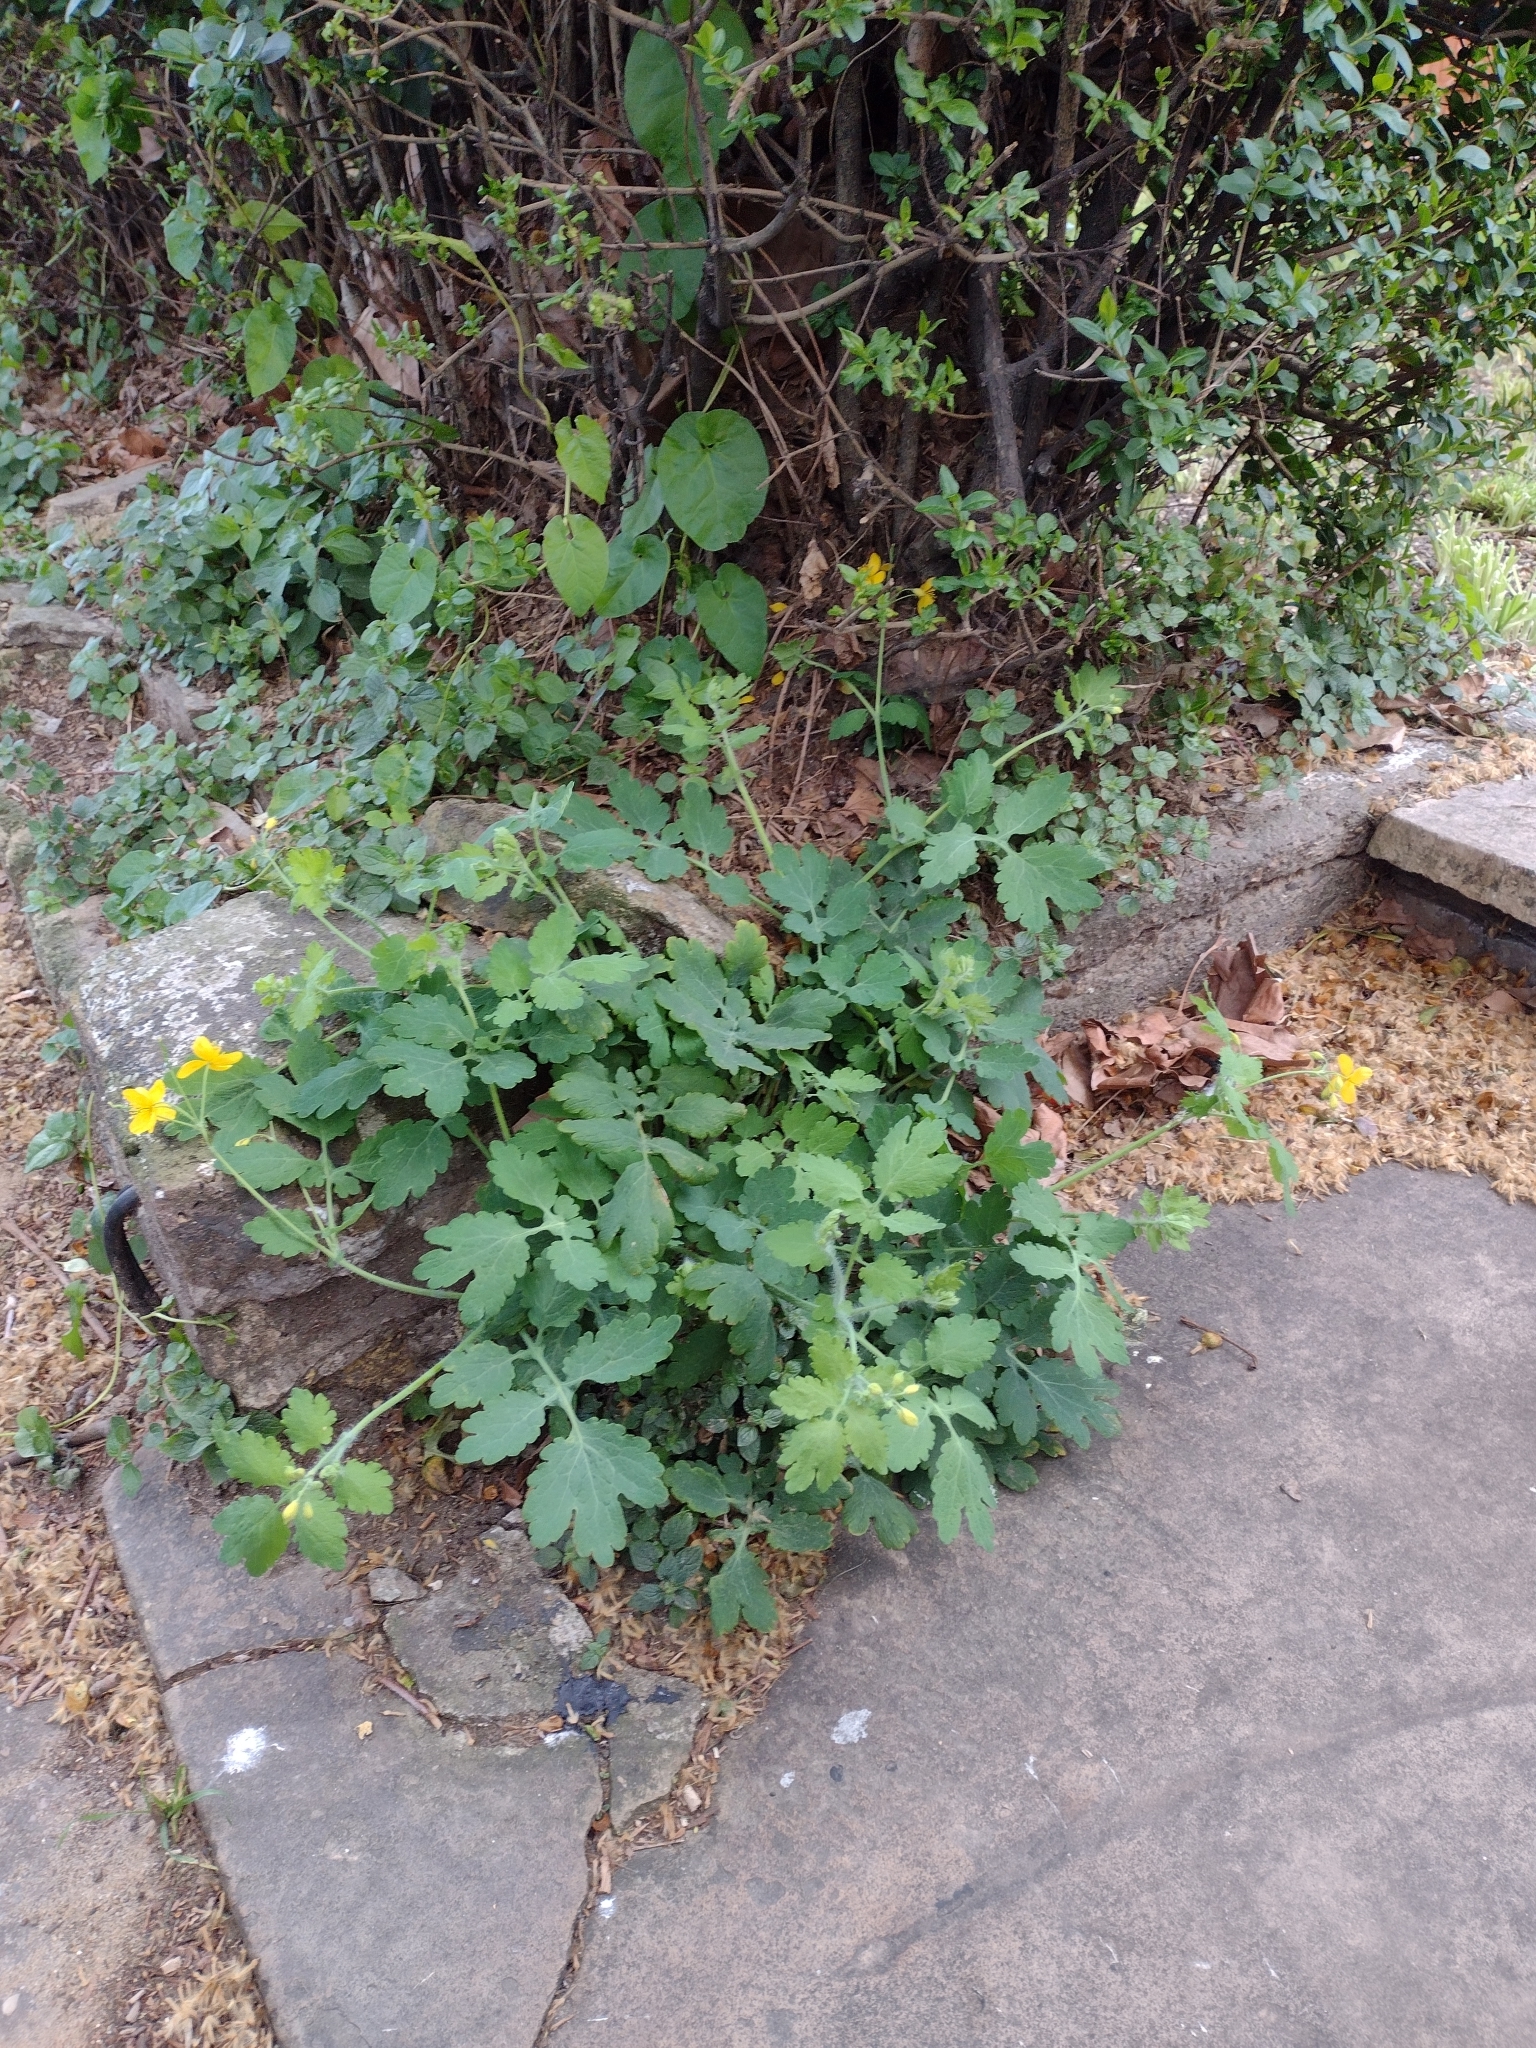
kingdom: Plantae
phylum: Tracheophyta
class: Magnoliopsida
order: Ranunculales
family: Papaveraceae
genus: Chelidonium
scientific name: Chelidonium majus
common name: Greater celandine
